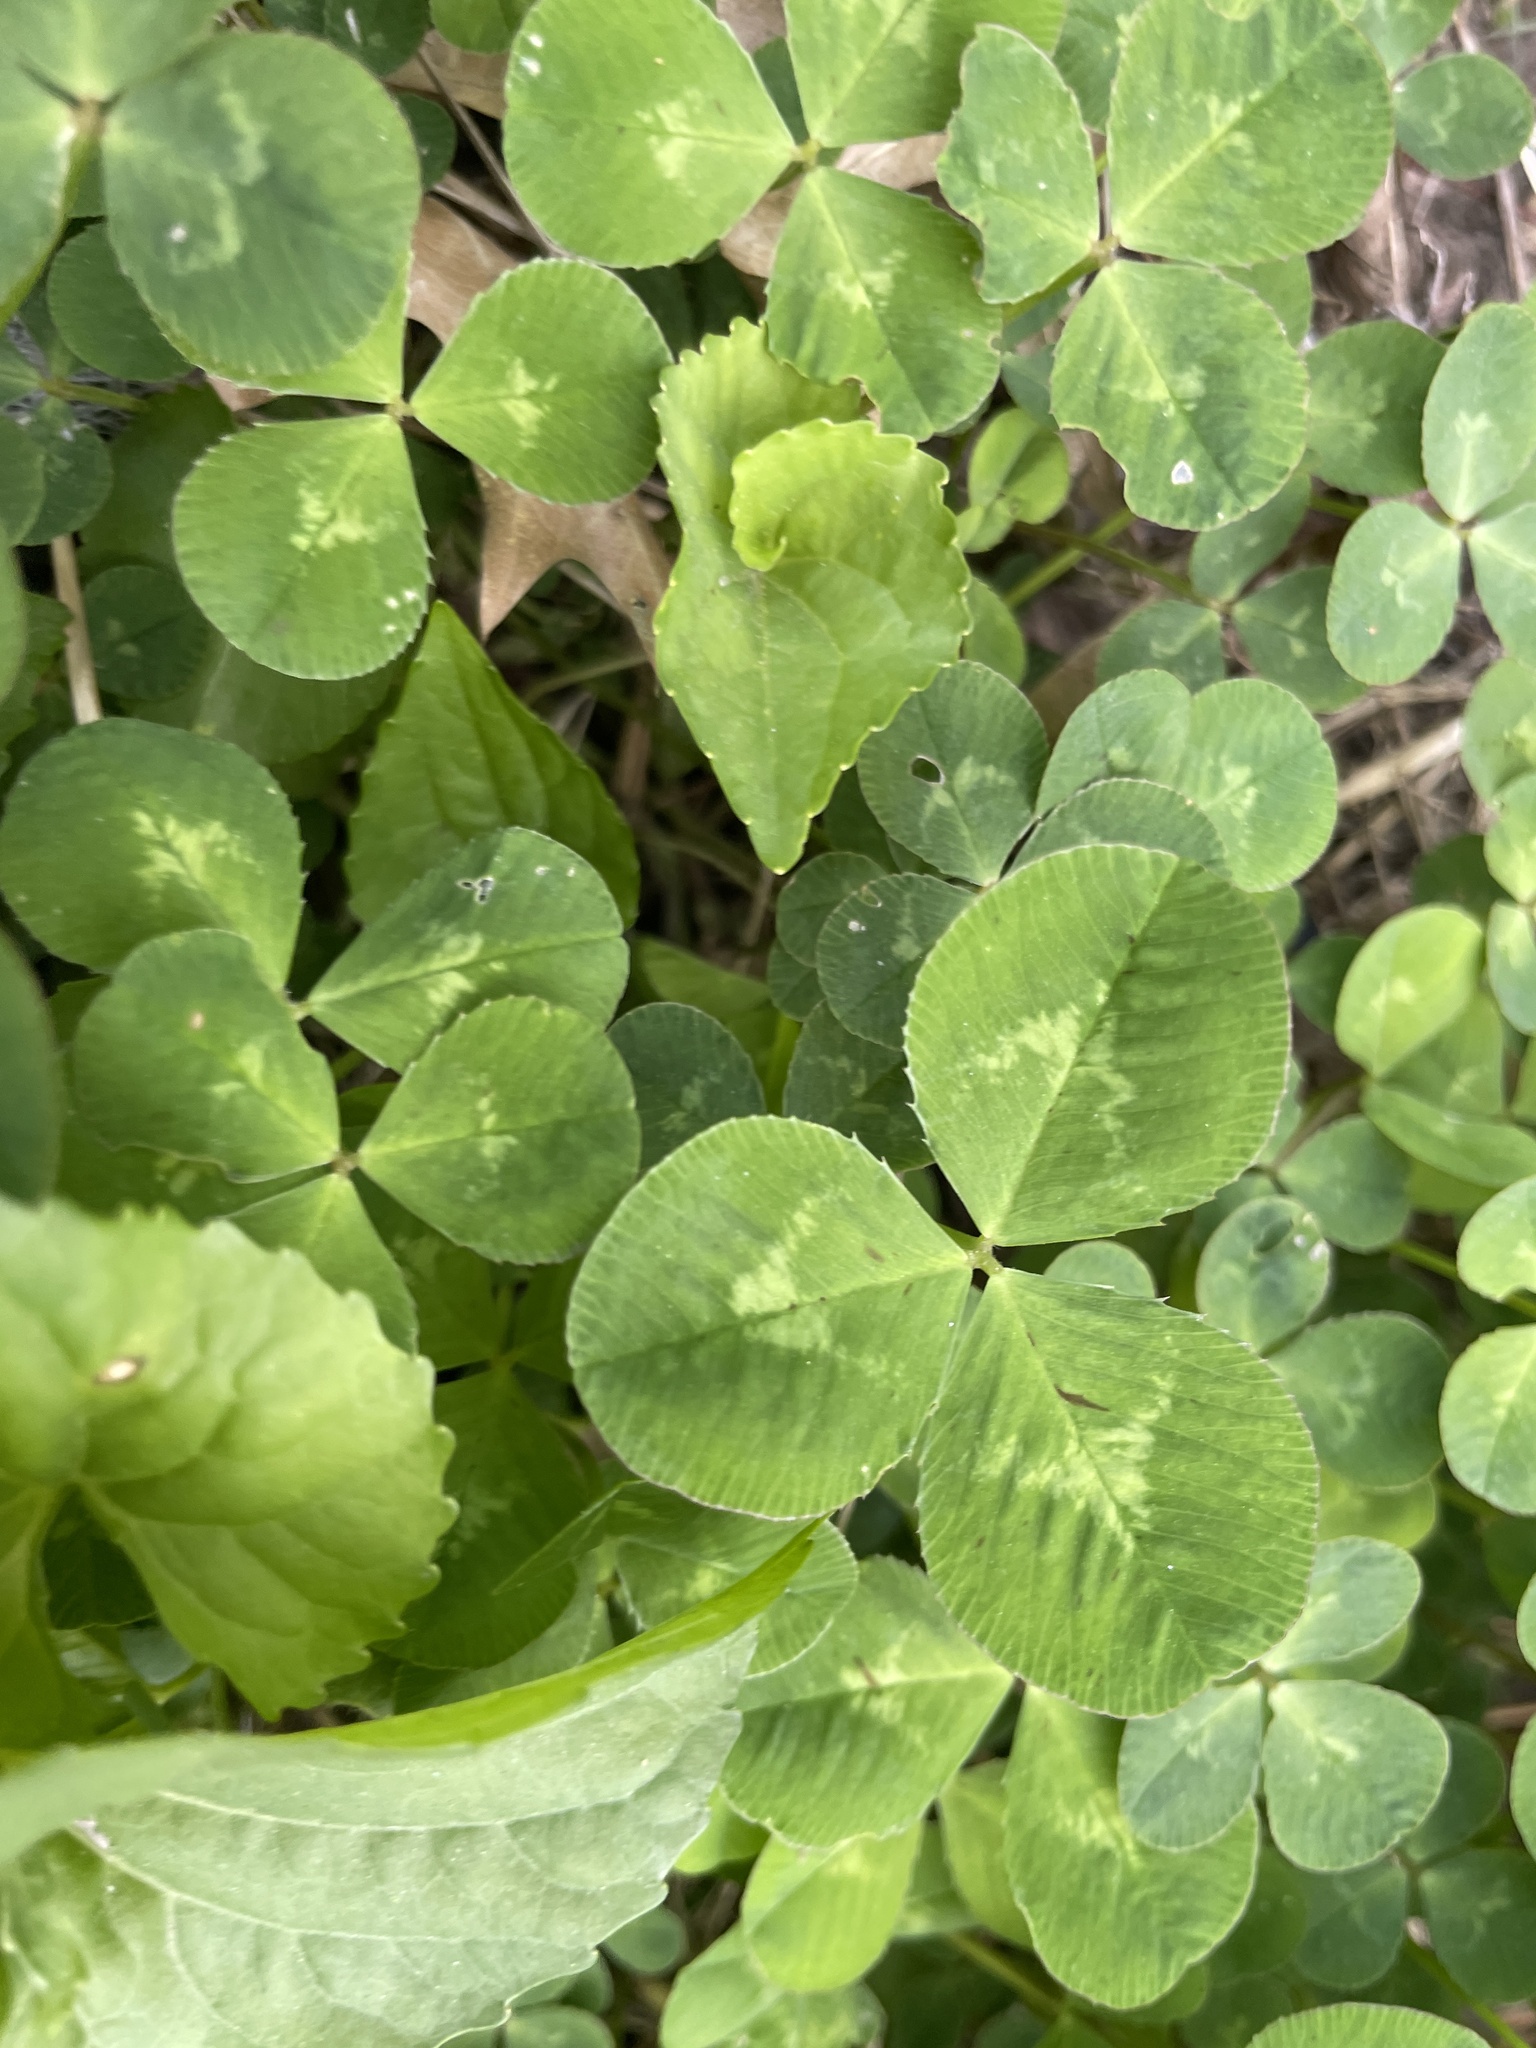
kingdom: Plantae
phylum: Tracheophyta
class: Magnoliopsida
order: Fabales
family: Fabaceae
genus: Trifolium
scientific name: Trifolium repens
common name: White clover
